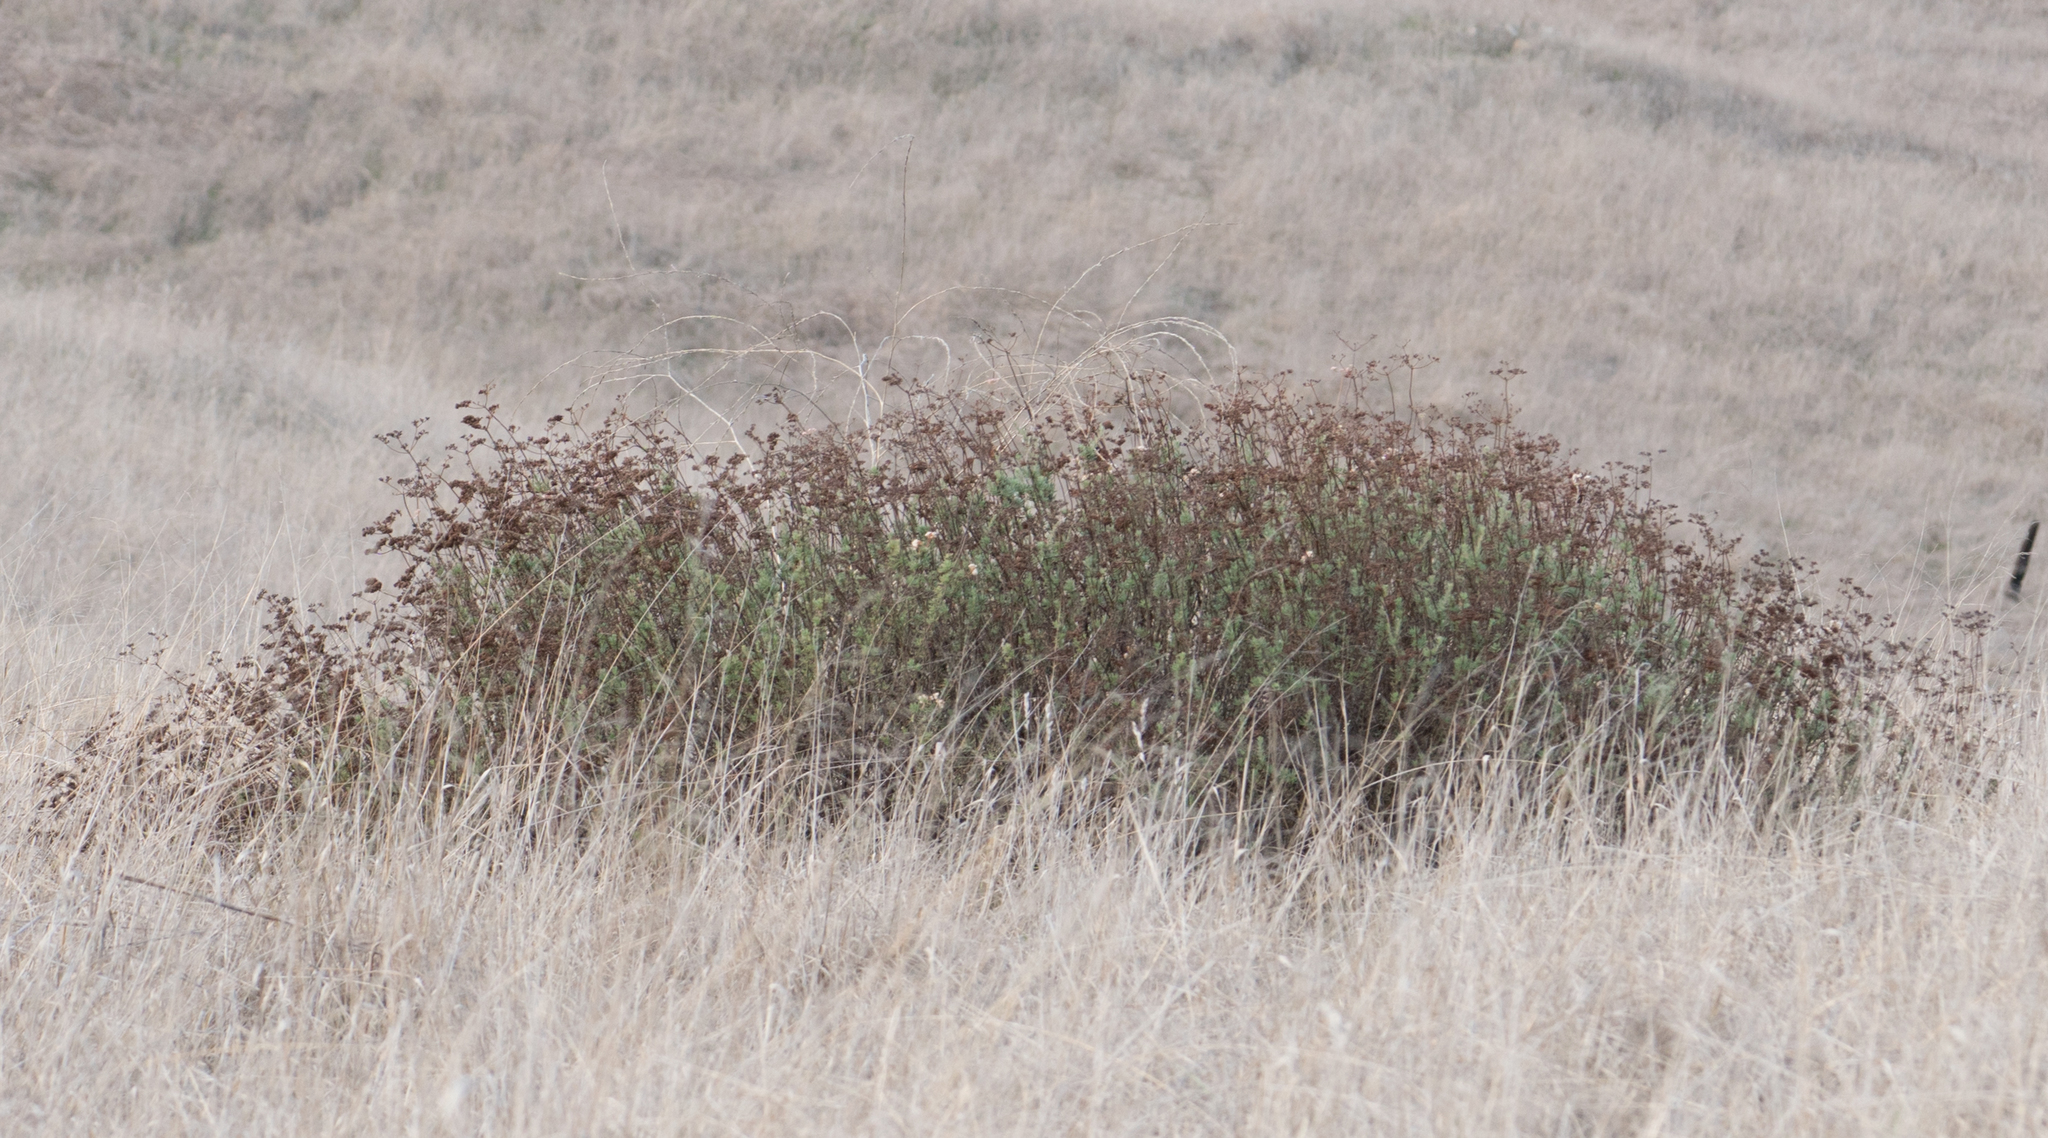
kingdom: Plantae
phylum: Tracheophyta
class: Magnoliopsida
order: Caryophyllales
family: Polygonaceae
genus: Eriogonum
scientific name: Eriogonum fasciculatum
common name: California wild buckwheat
